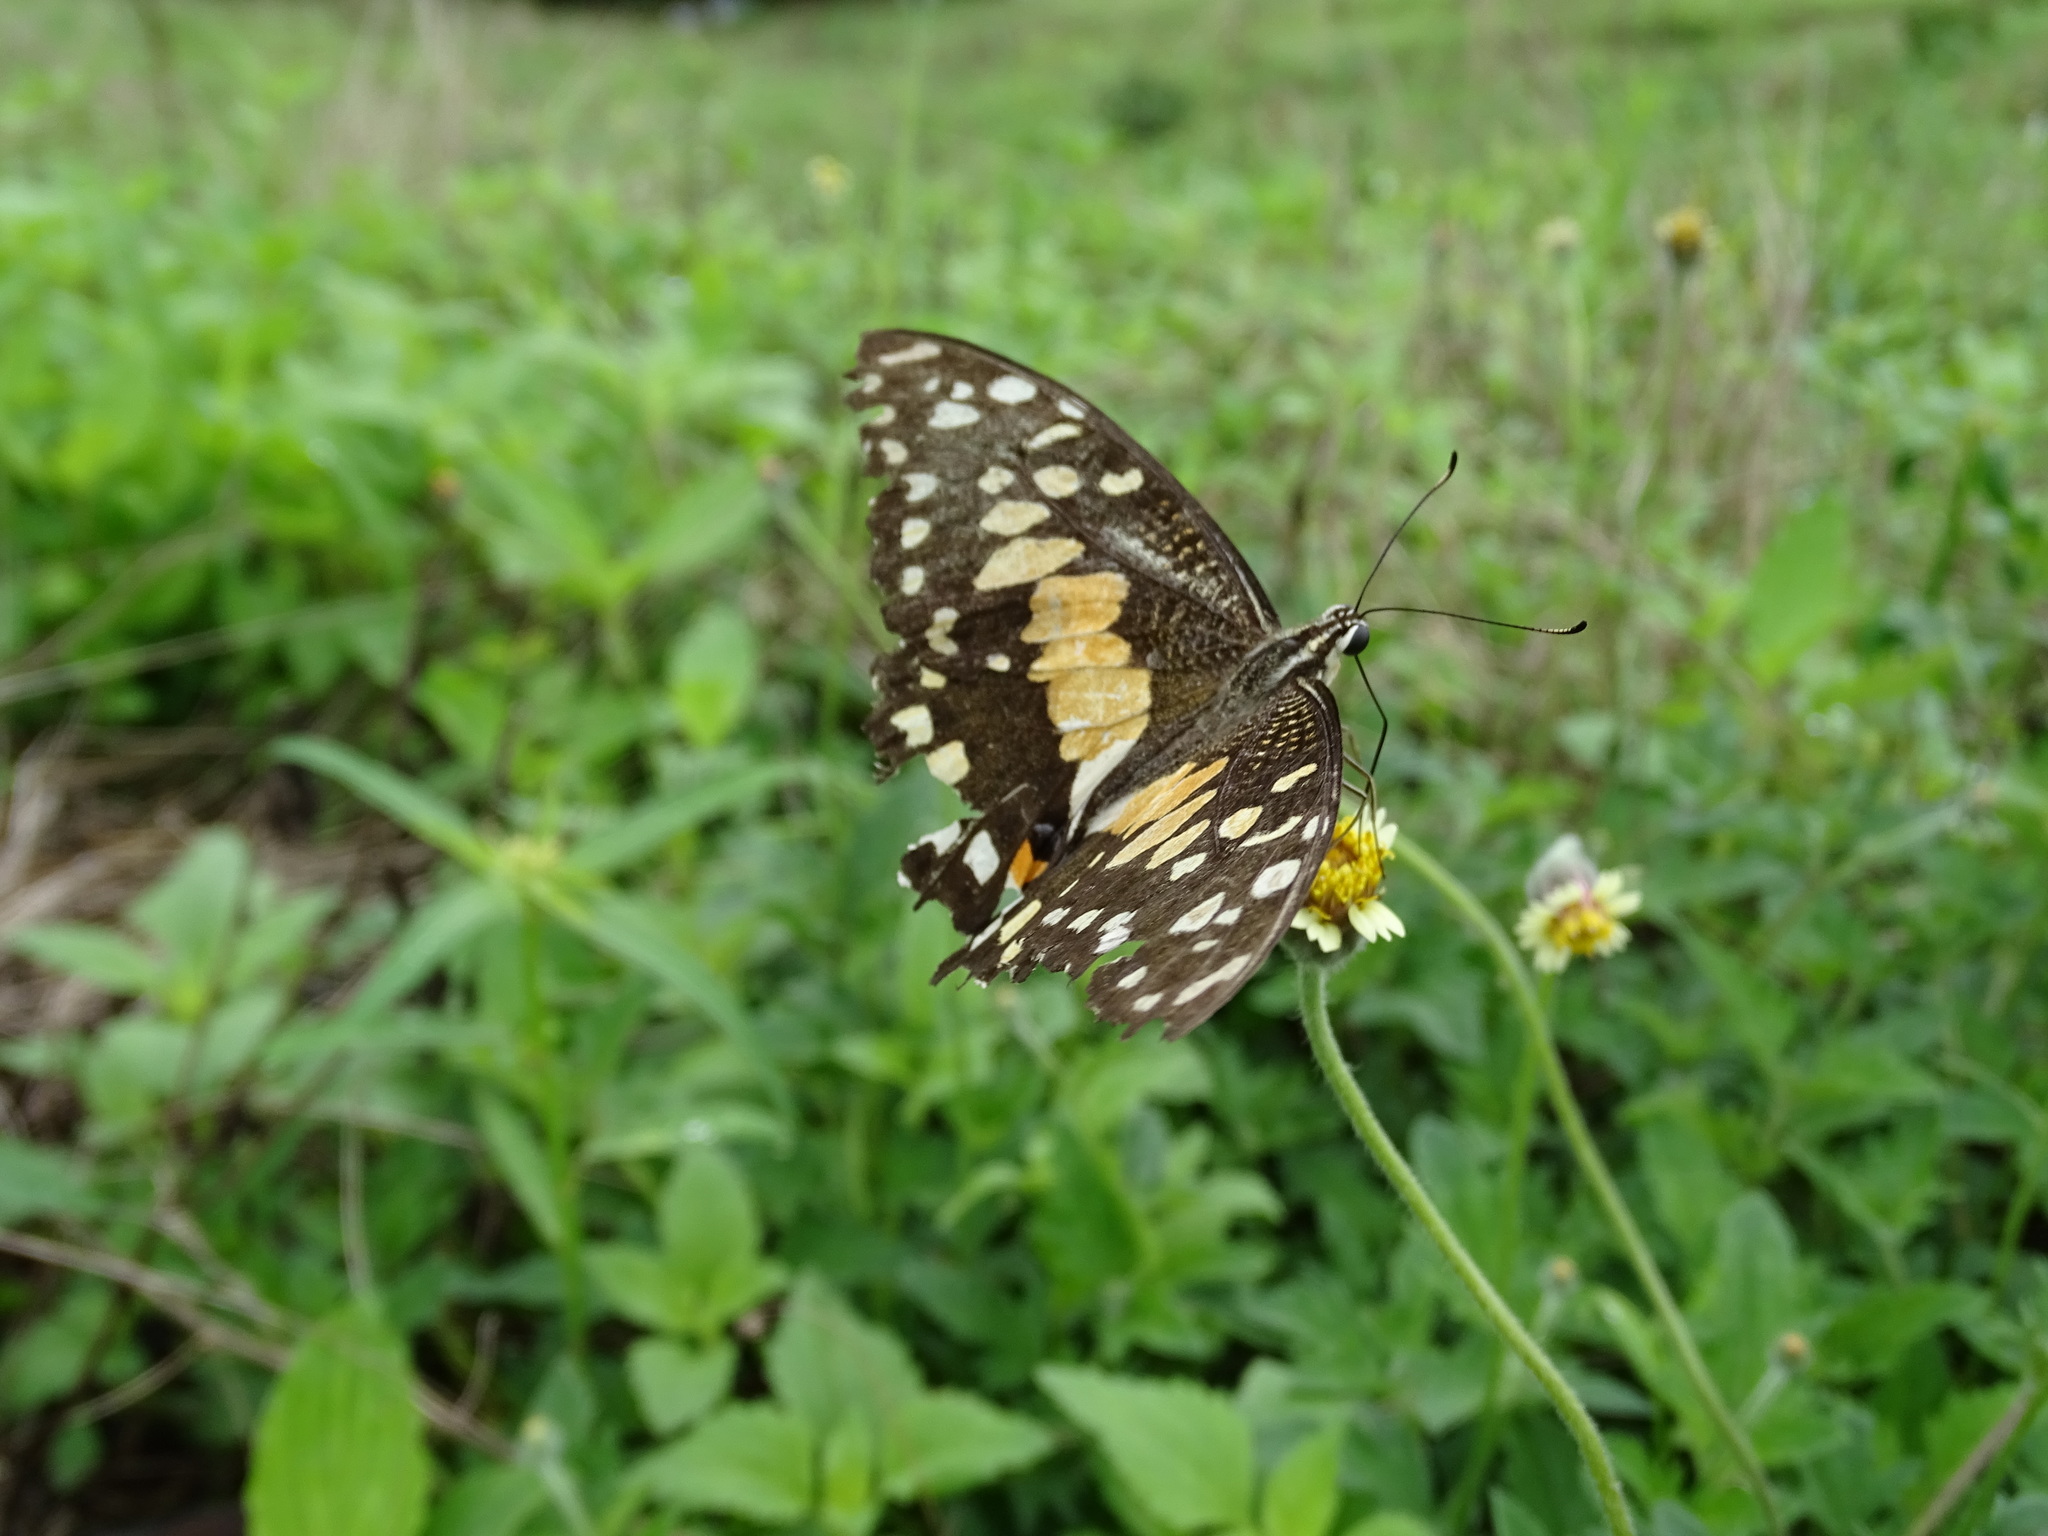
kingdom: Animalia
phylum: Arthropoda
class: Insecta
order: Lepidoptera
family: Papilionidae
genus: Papilio
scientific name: Papilio demoleus
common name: Lime butterfly
